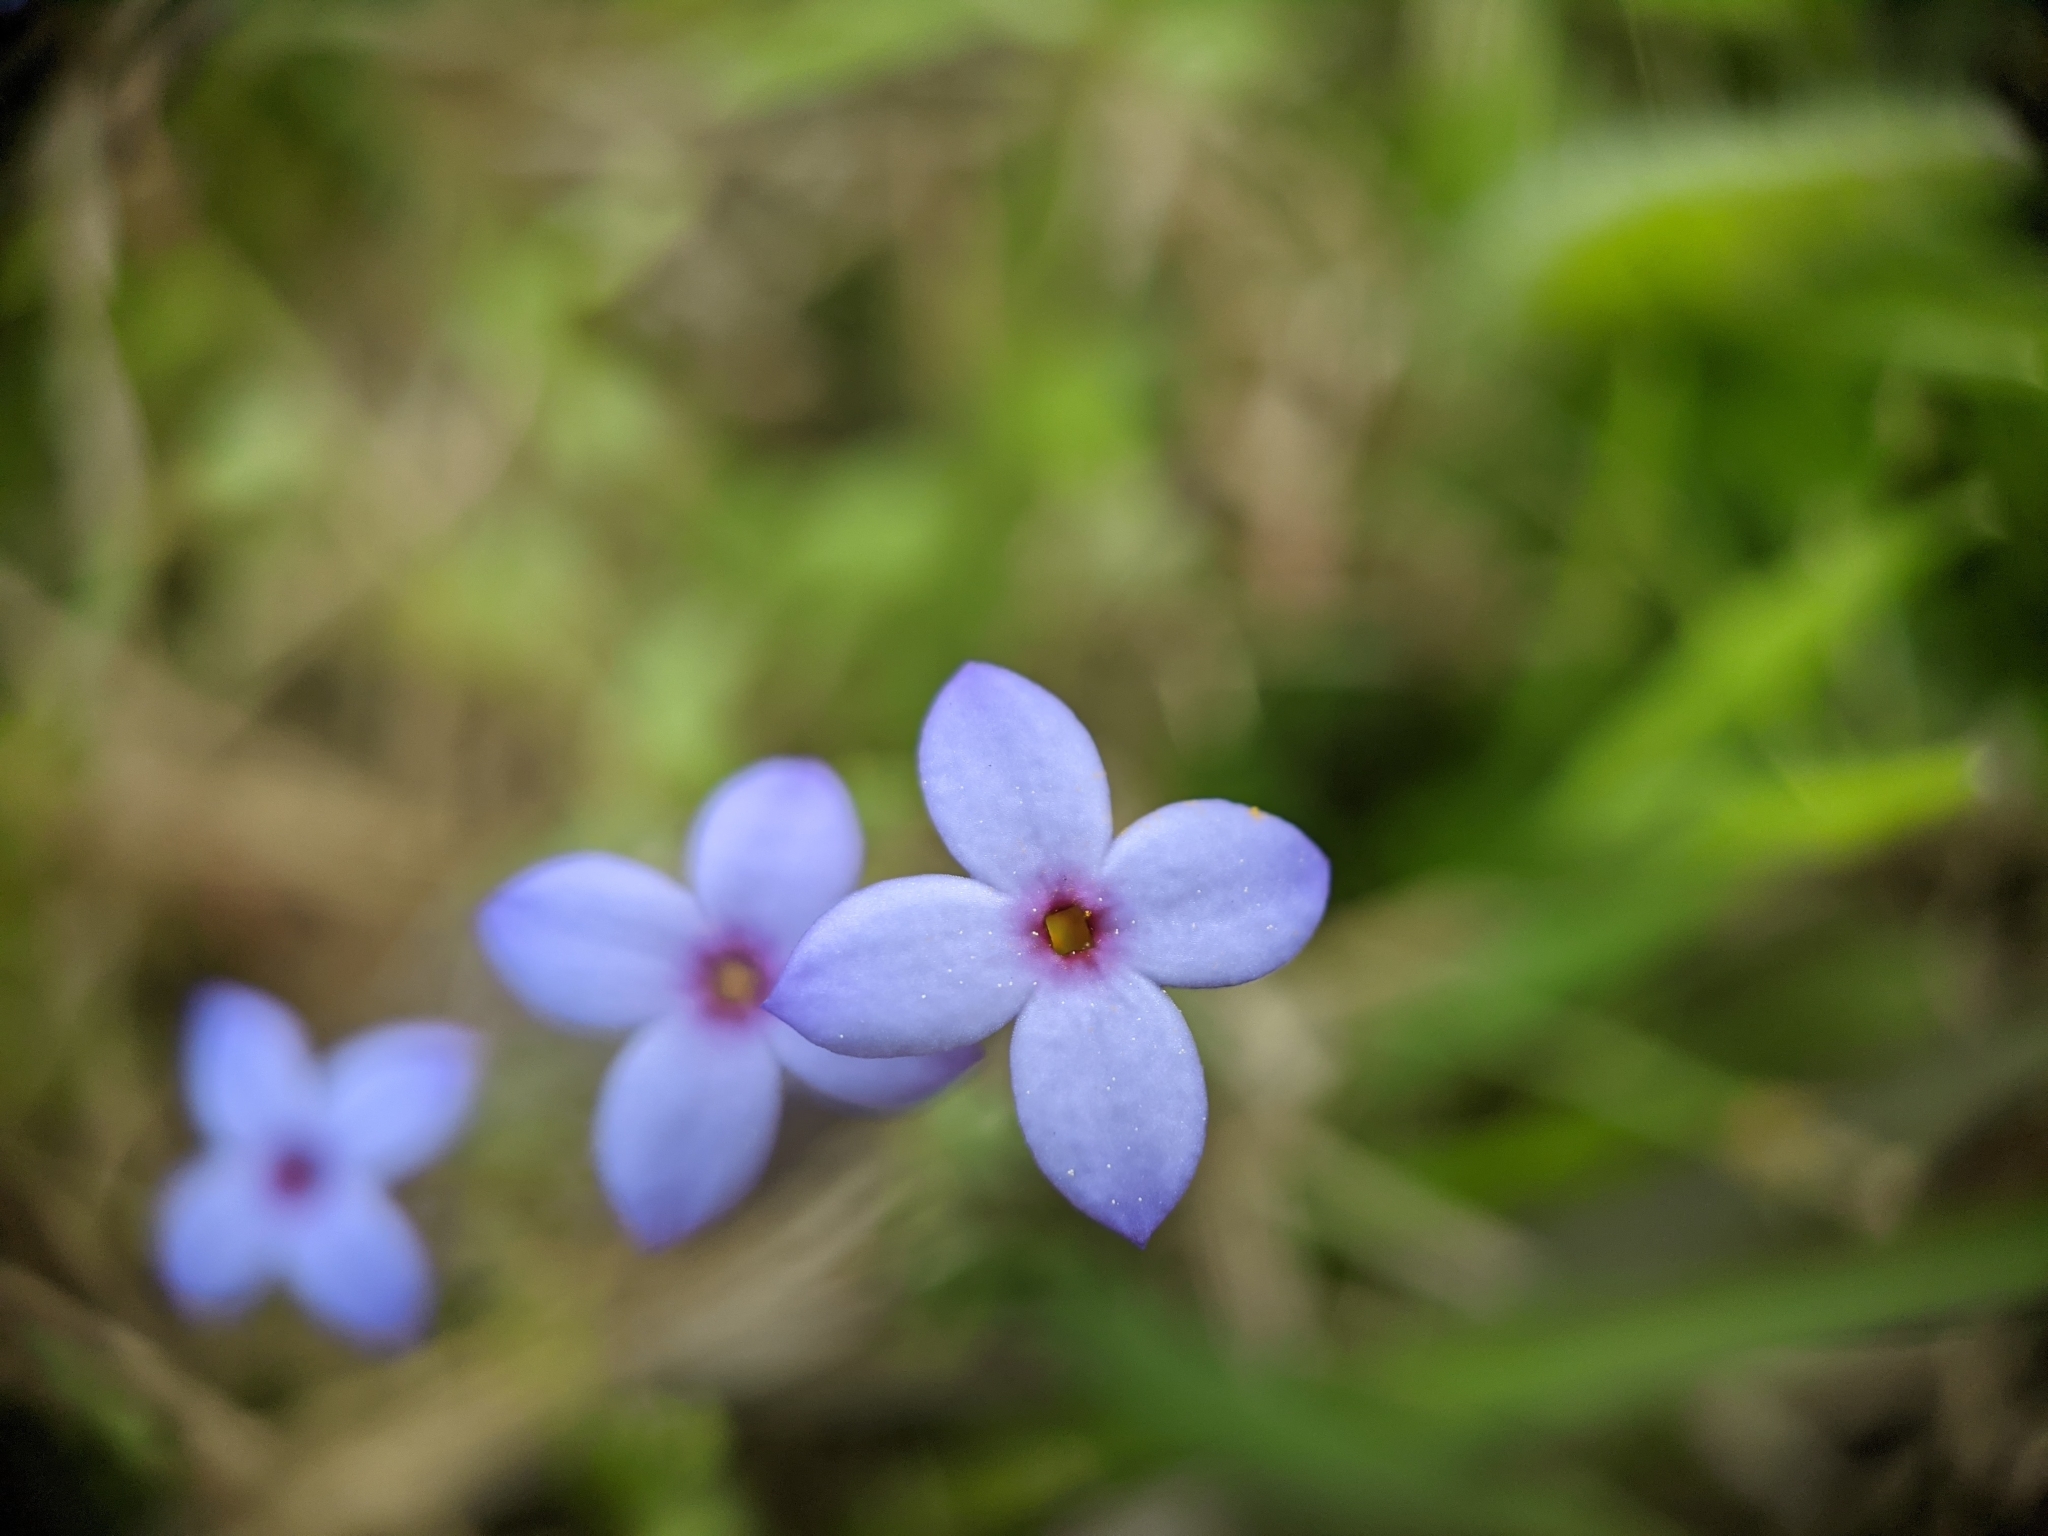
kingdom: Plantae
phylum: Tracheophyta
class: Magnoliopsida
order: Gentianales
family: Rubiaceae
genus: Houstonia
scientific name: Houstonia pusilla
